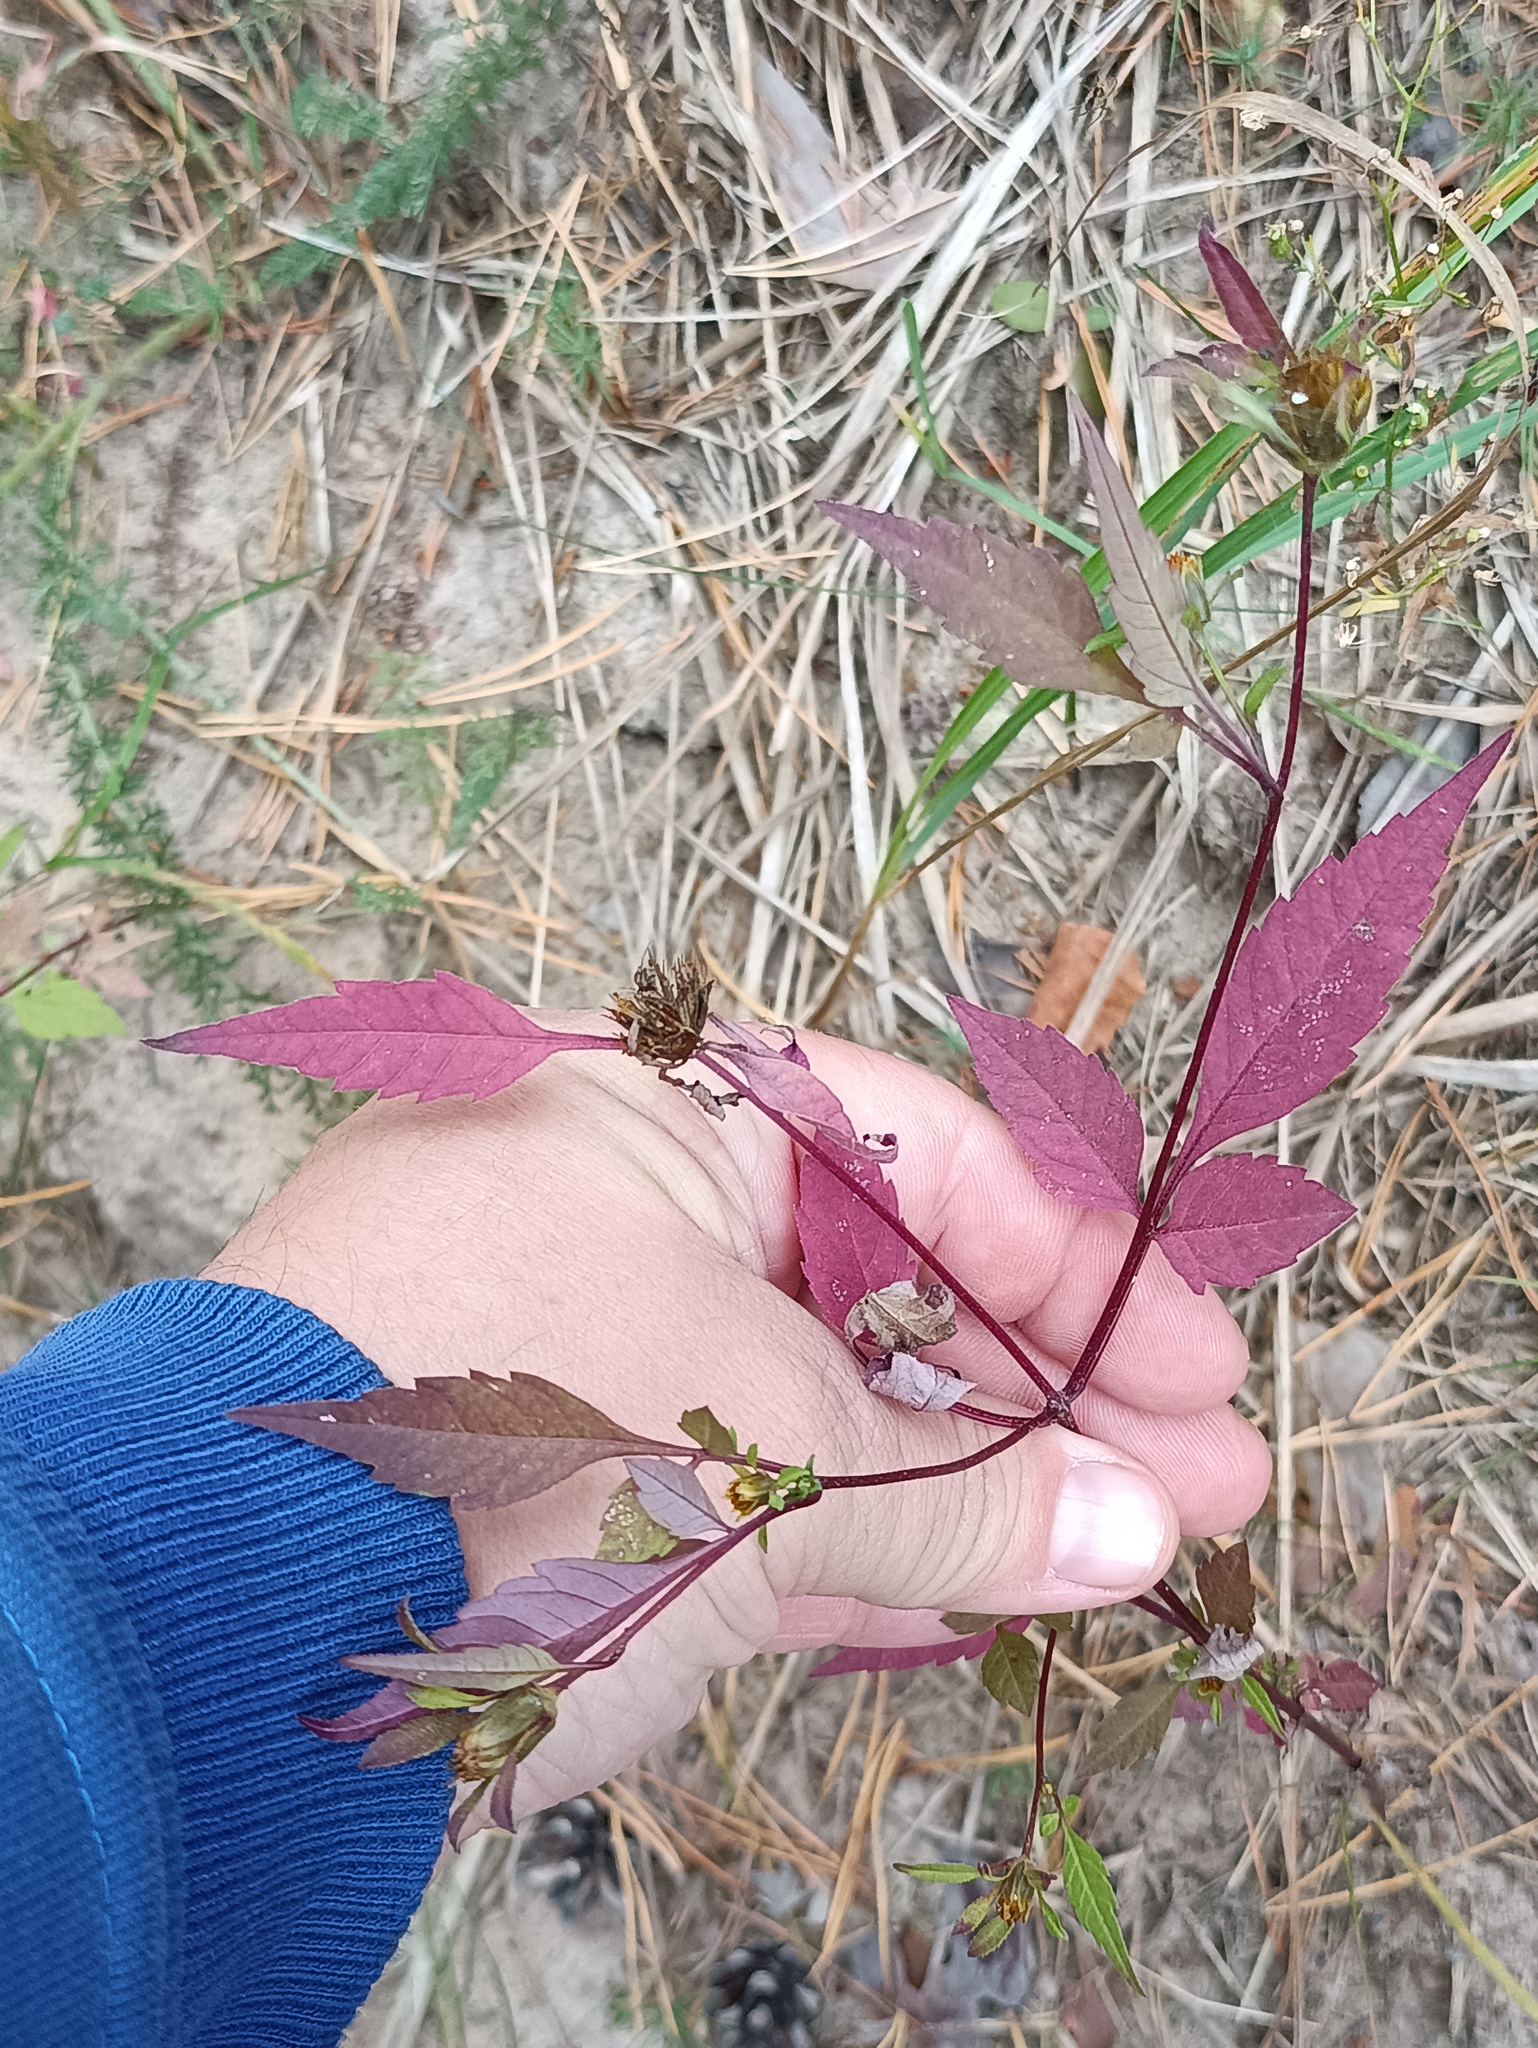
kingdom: Plantae
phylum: Tracheophyta
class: Magnoliopsida
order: Asterales
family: Asteraceae
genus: Bidens
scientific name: Bidens frondosa
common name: Beggarticks
